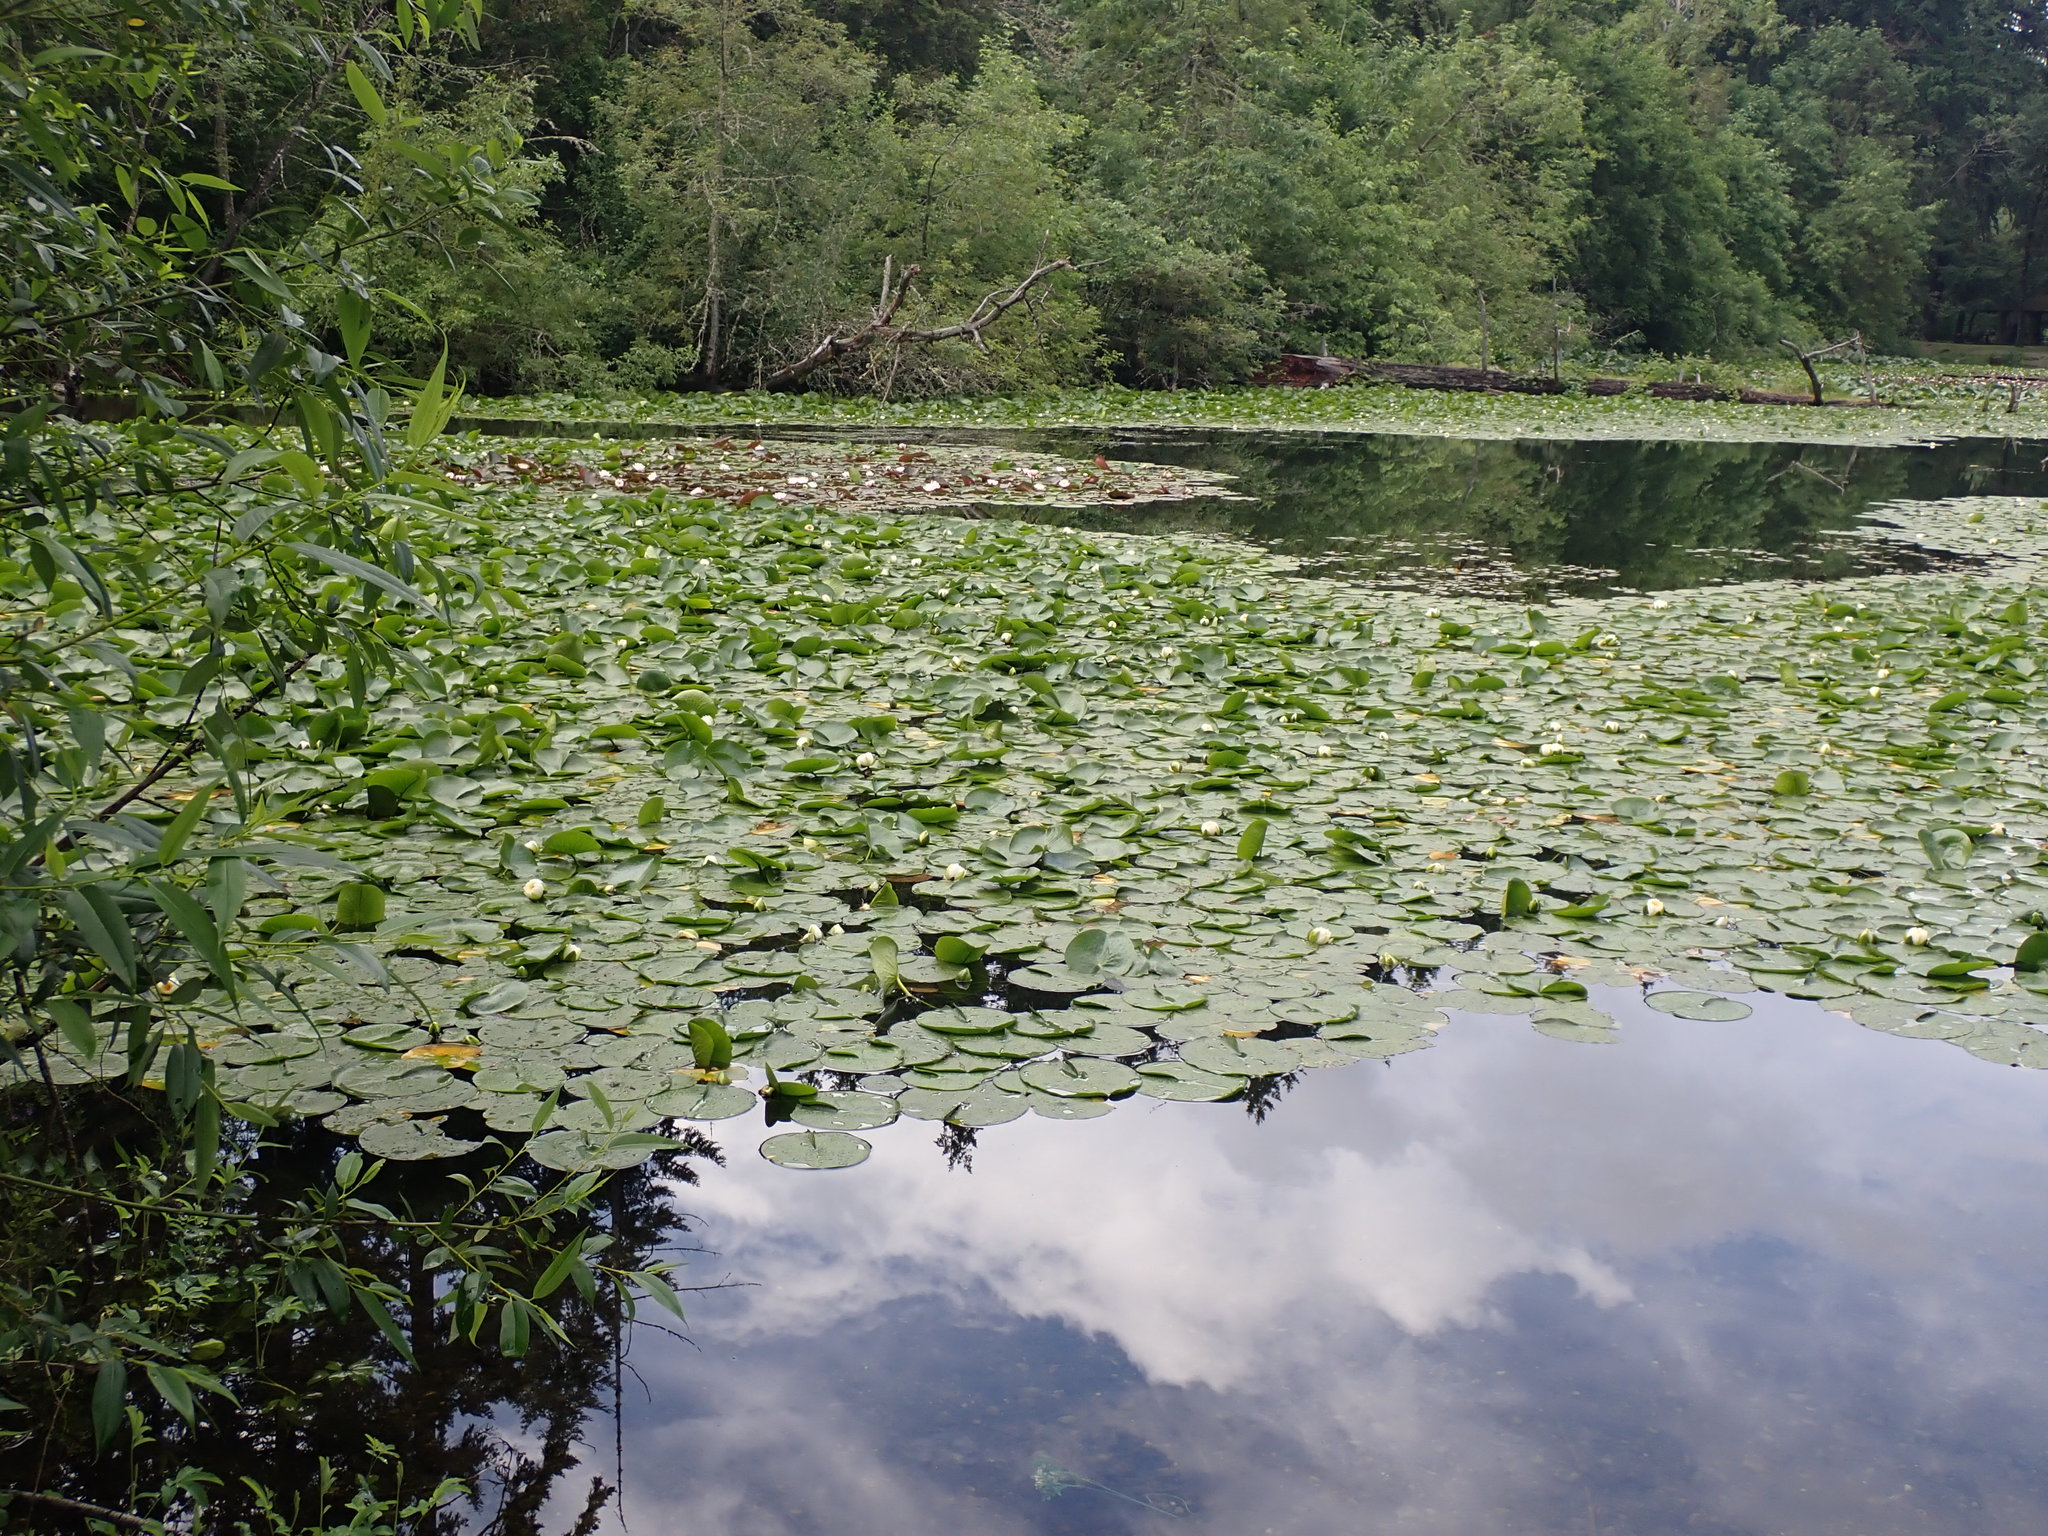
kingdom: Plantae
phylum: Tracheophyta
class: Magnoliopsida
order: Nymphaeales
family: Nymphaeaceae
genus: Nymphaea
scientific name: Nymphaea odorata
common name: Fragrant water-lily
